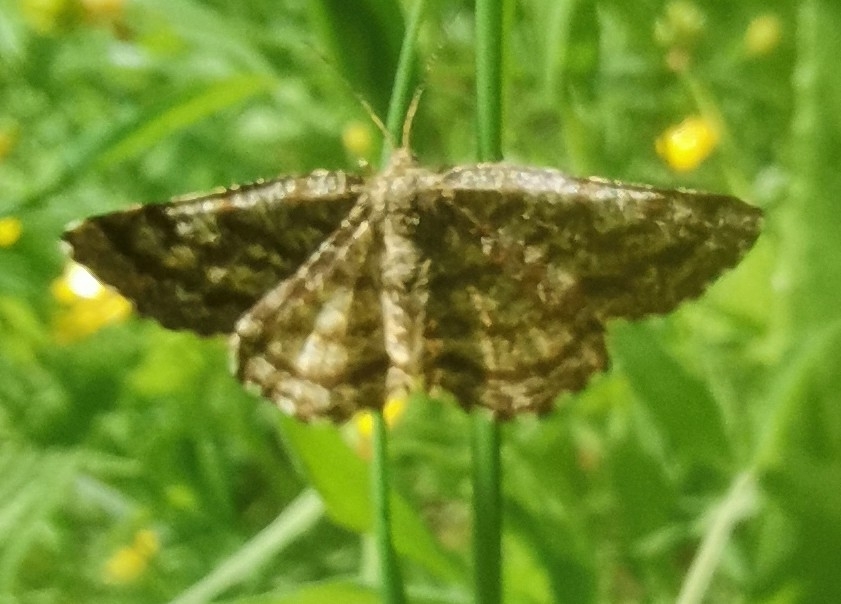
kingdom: Animalia
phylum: Arthropoda
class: Insecta
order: Lepidoptera
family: Geometridae
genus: Ematurga
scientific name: Ematurga atomaria
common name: Common heath
